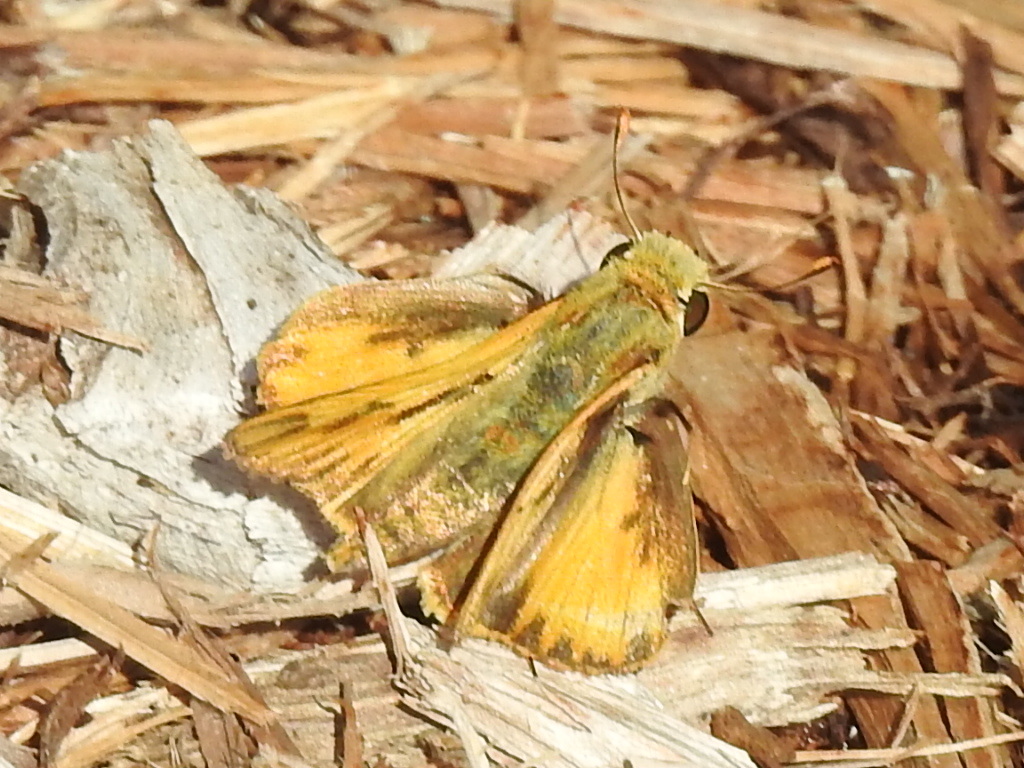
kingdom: Animalia
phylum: Arthropoda
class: Insecta
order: Lepidoptera
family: Hesperiidae
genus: Hylephila
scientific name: Hylephila phyleus
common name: Fiery skipper
